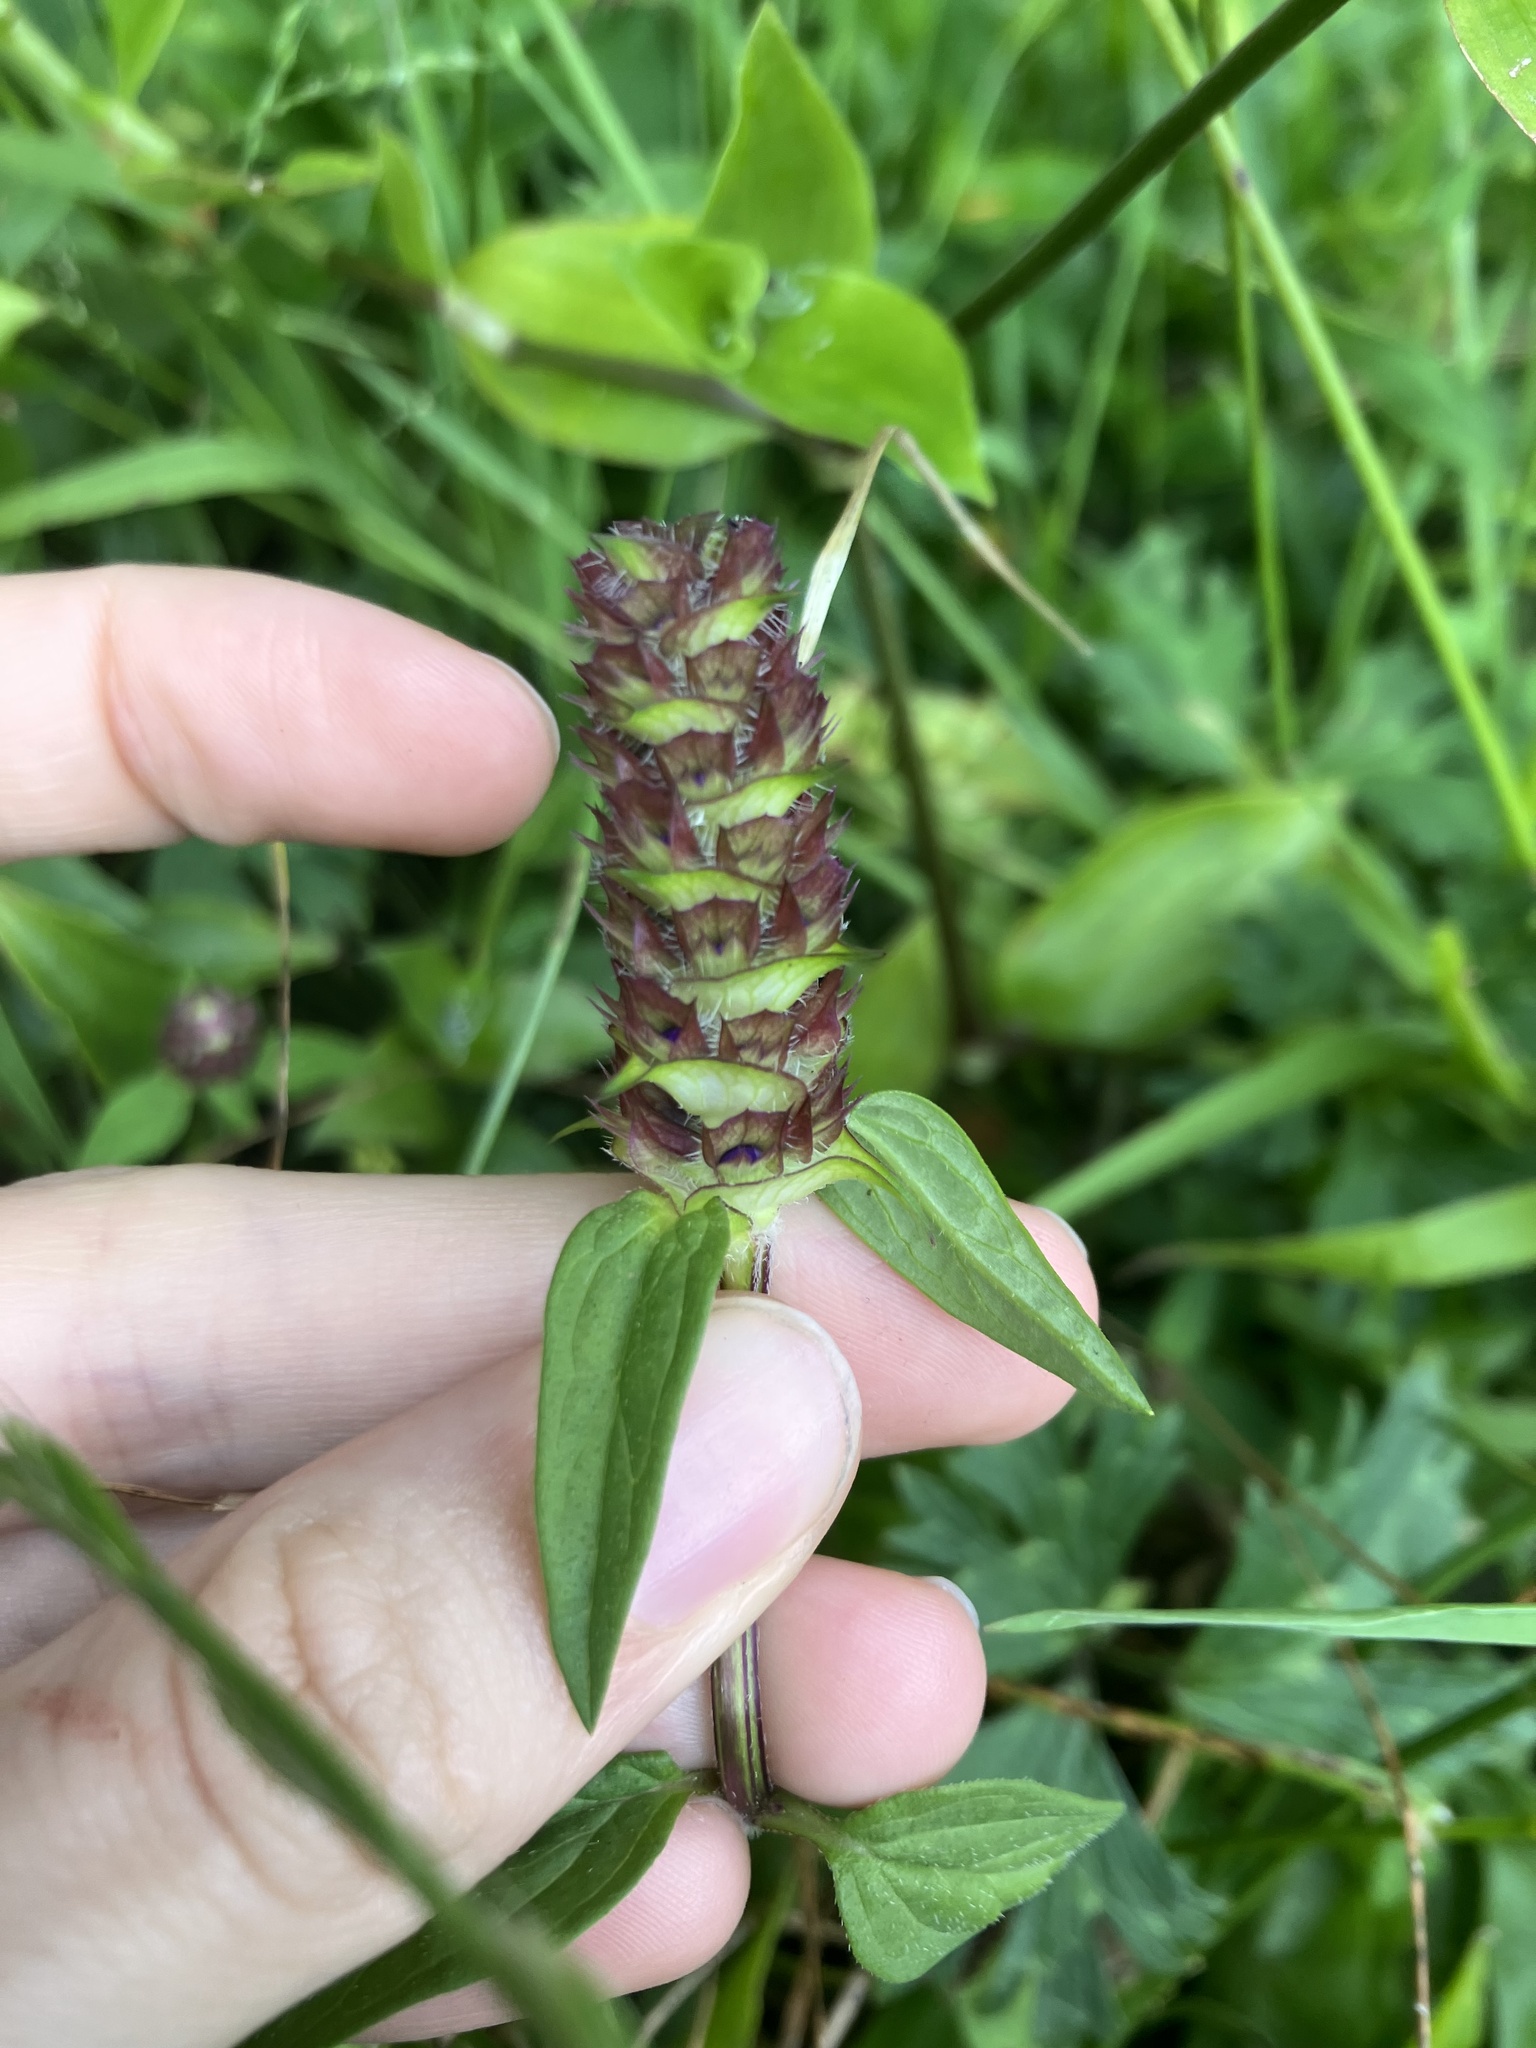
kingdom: Plantae
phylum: Tracheophyta
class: Magnoliopsida
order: Lamiales
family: Lamiaceae
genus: Prunella
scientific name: Prunella vulgaris
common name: Heal-all
